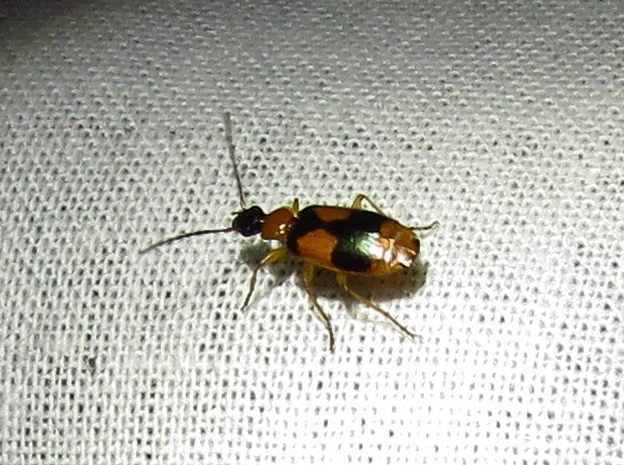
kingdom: Animalia
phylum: Arthropoda
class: Insecta
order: Coleoptera
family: Carabidae
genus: Lebia
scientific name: Lebia pulchella
